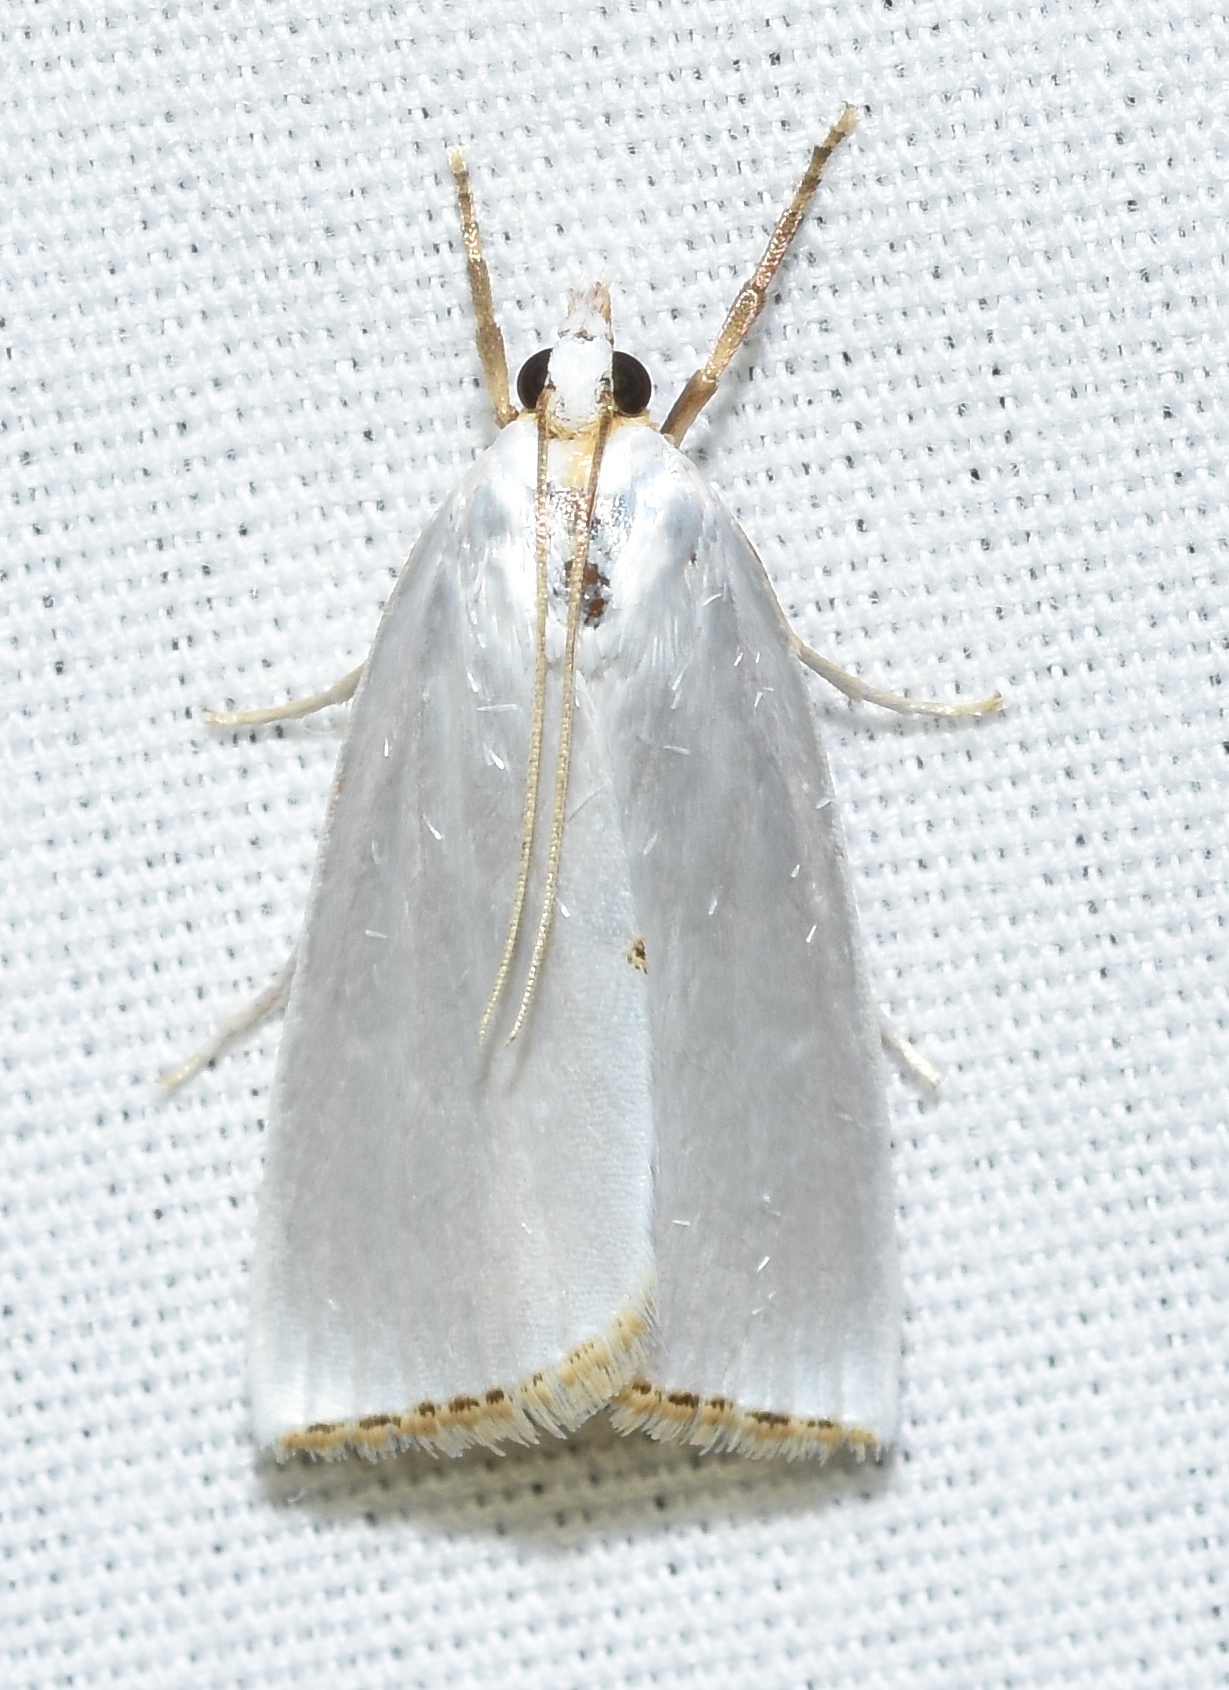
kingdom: Animalia
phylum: Arthropoda
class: Insecta
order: Lepidoptera
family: Crambidae
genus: Argyria
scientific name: Argyria nivalis
